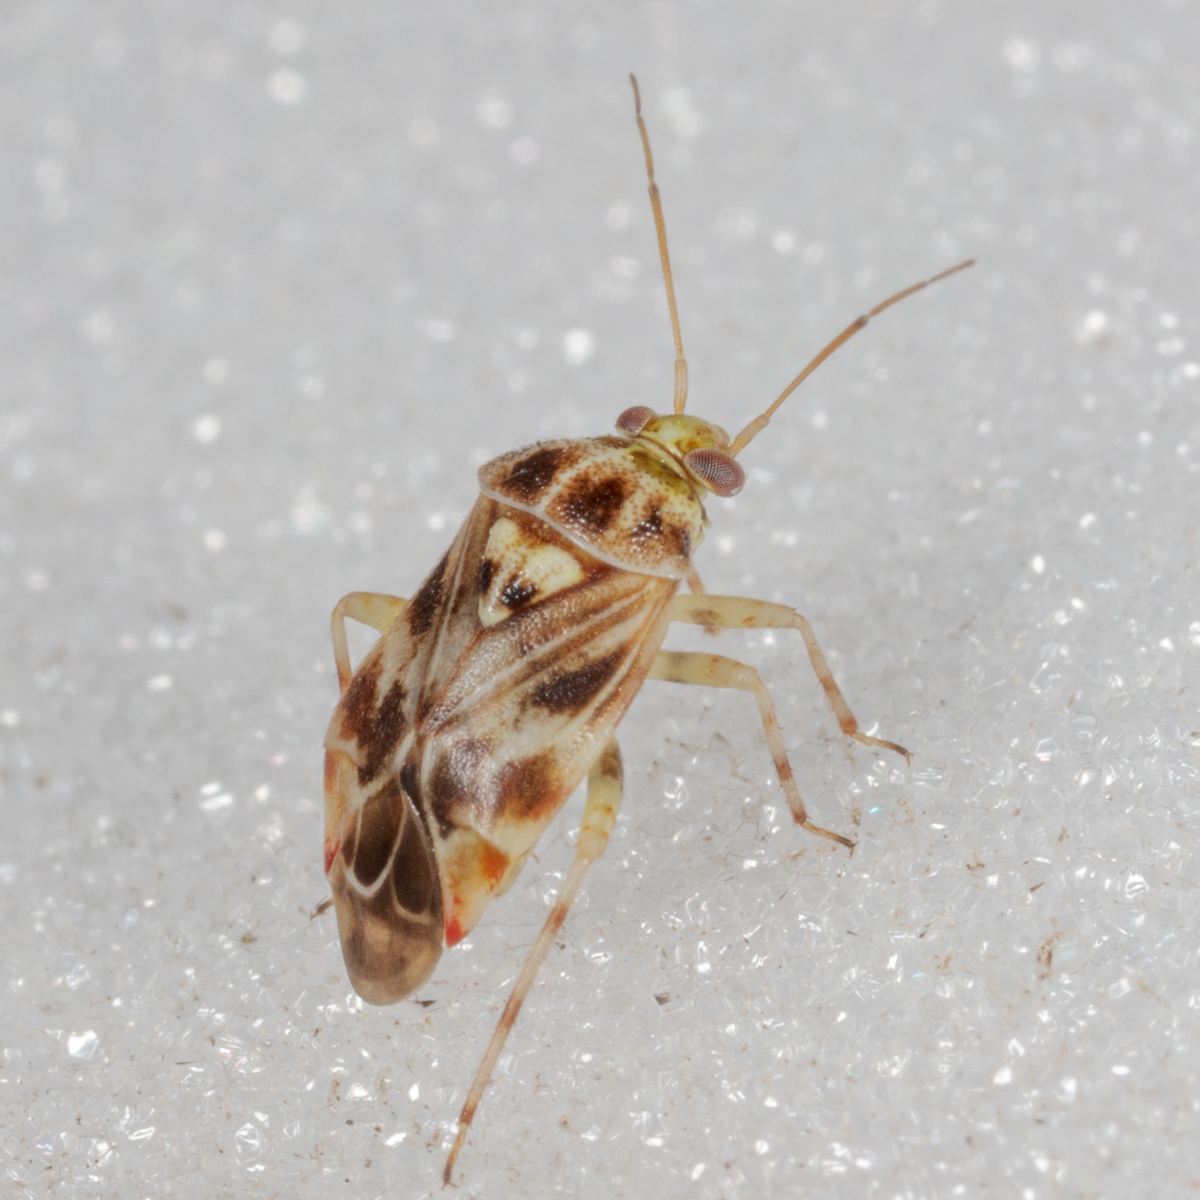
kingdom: Animalia
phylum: Arthropoda
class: Insecta
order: Hemiptera
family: Miridae
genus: Tropidosteptes
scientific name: Tropidosteptes quercicola
